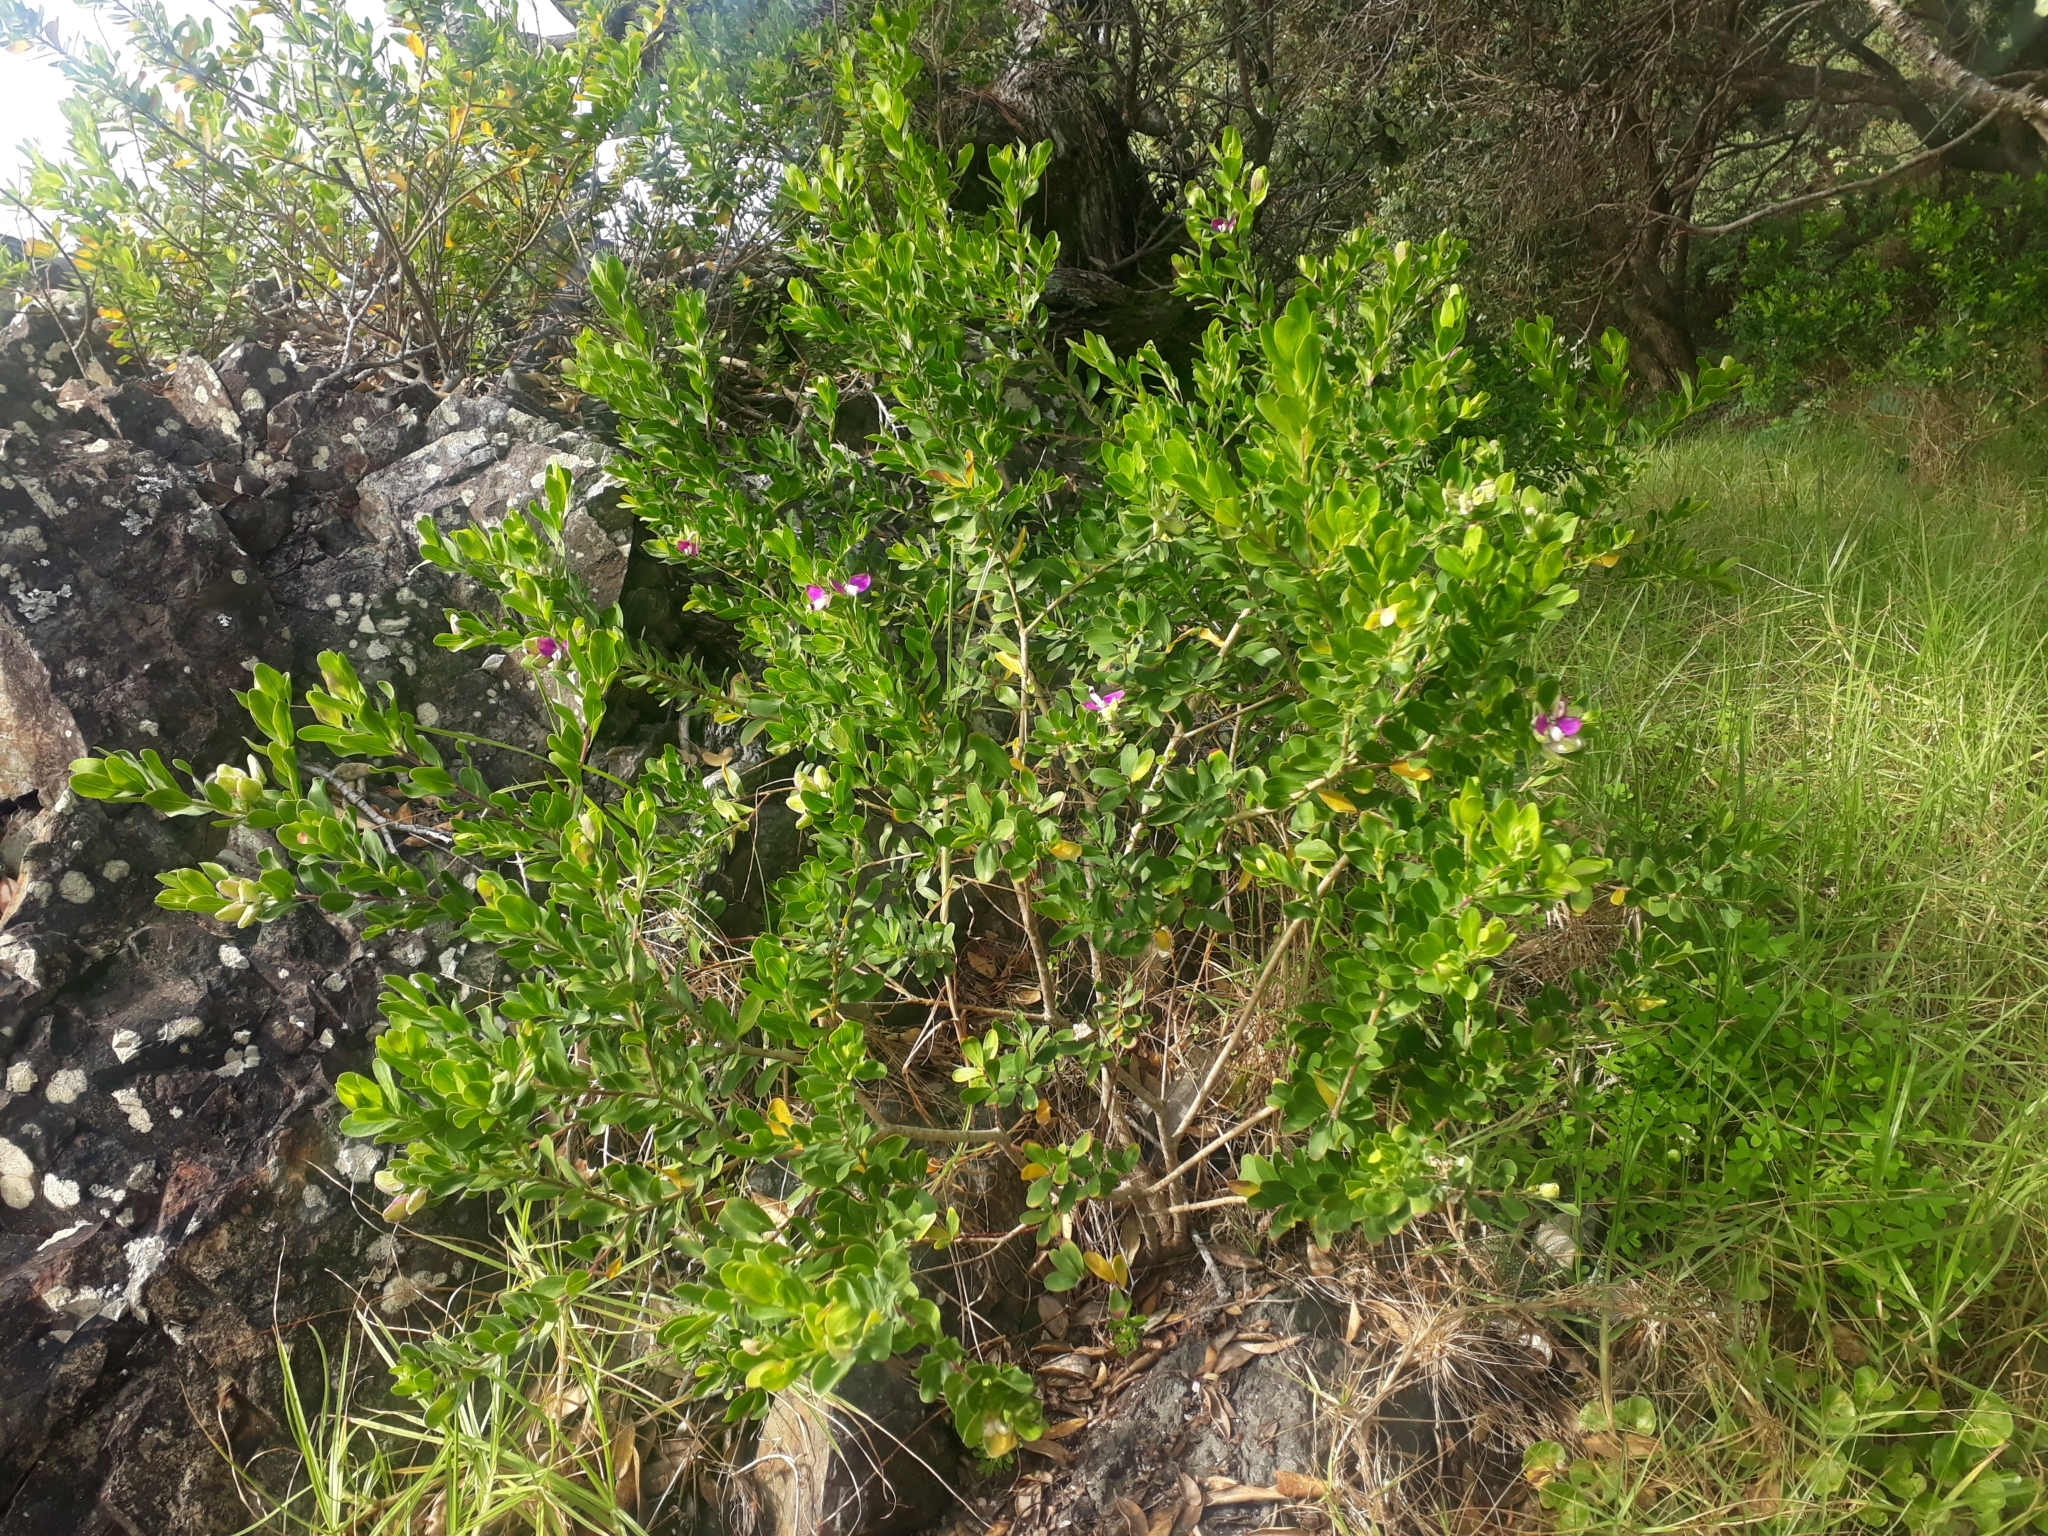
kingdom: Plantae
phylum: Tracheophyta
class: Magnoliopsida
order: Fabales
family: Polygalaceae
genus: Polygala
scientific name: Polygala myrtifolia
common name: Myrtle-leaf milkwort
